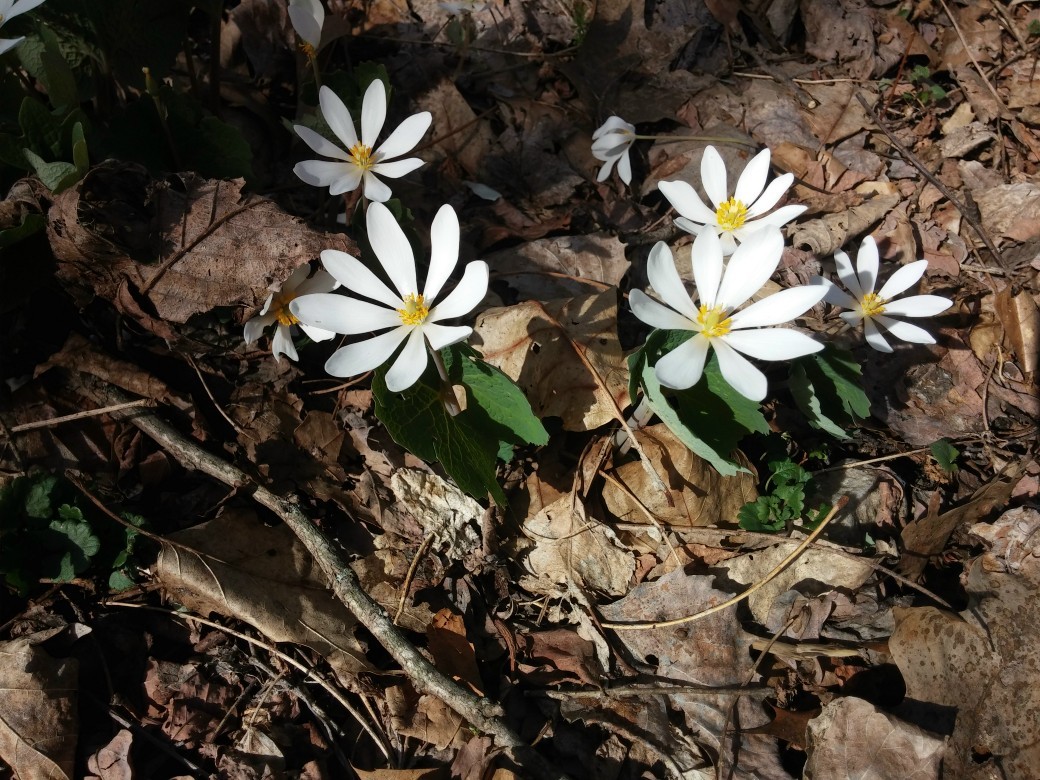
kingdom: Plantae
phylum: Tracheophyta
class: Magnoliopsida
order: Ranunculales
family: Papaveraceae
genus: Sanguinaria
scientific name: Sanguinaria canadensis
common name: Bloodroot
